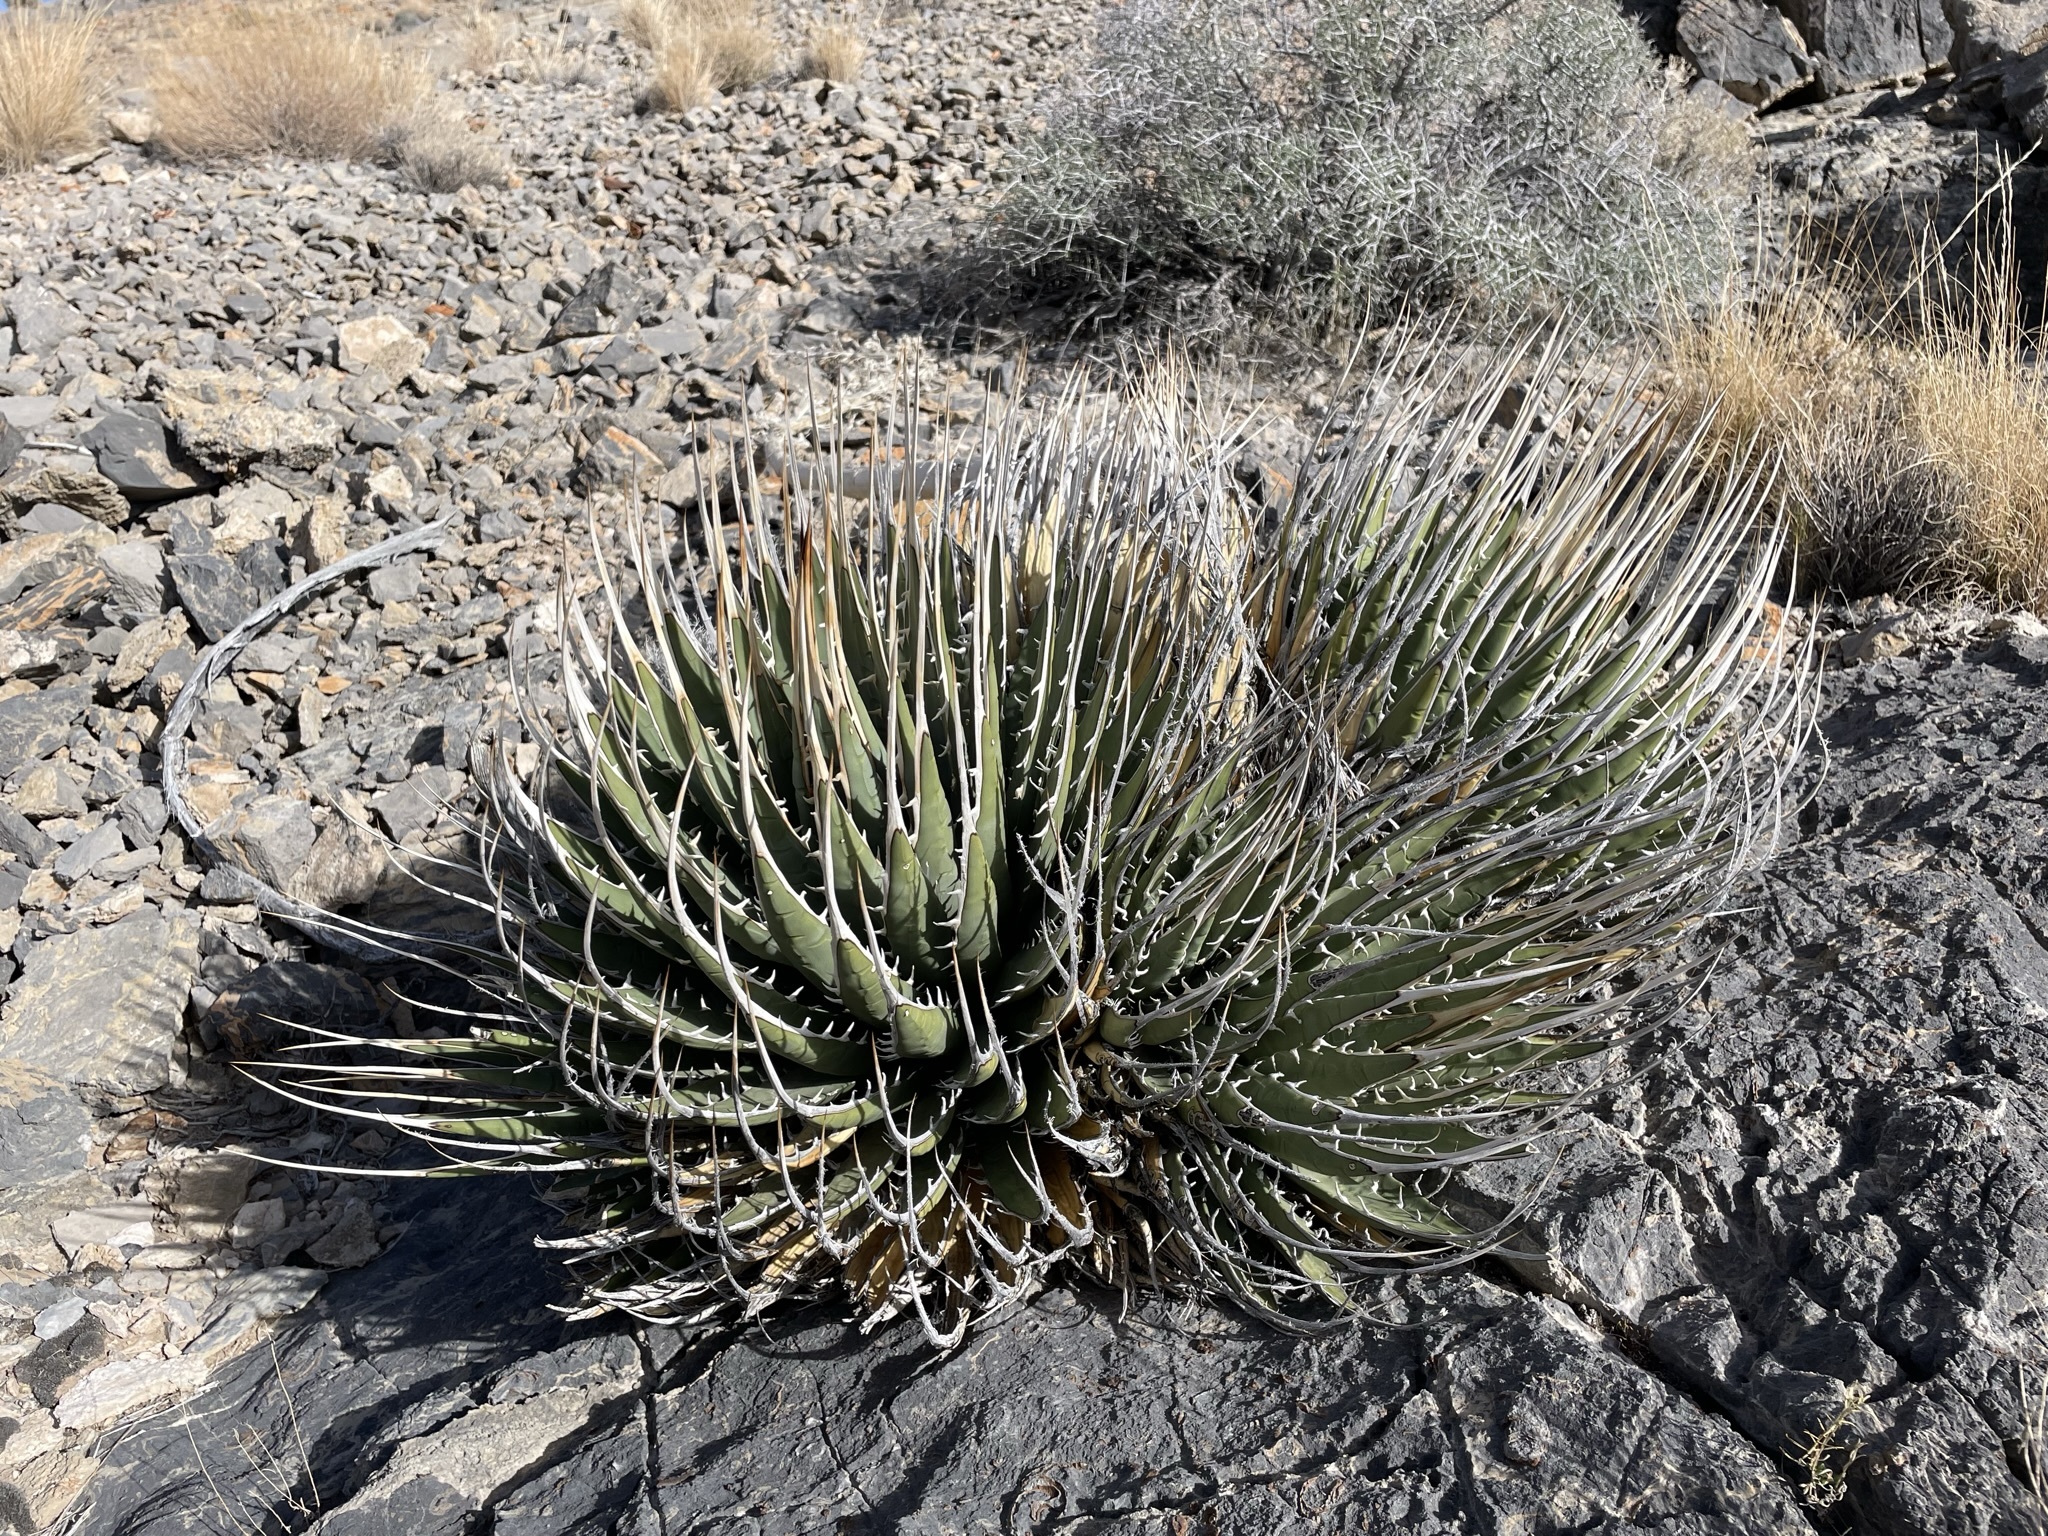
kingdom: Plantae
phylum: Tracheophyta
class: Liliopsida
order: Asparagales
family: Asparagaceae
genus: Agave
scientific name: Agave utahensis
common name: Utah agave
